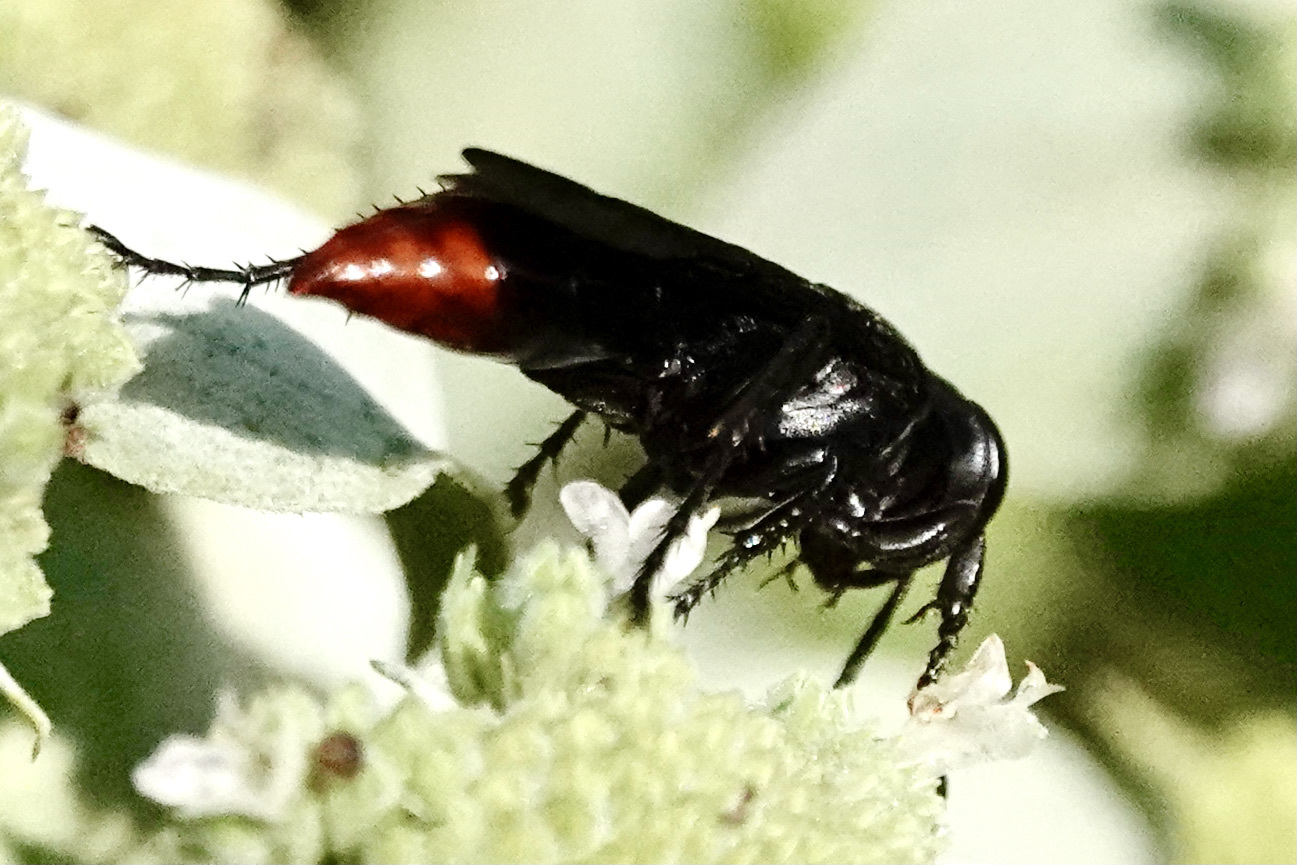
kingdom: Animalia
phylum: Arthropoda
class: Insecta
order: Hymenoptera
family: Crabronidae
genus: Larra
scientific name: Larra analis
